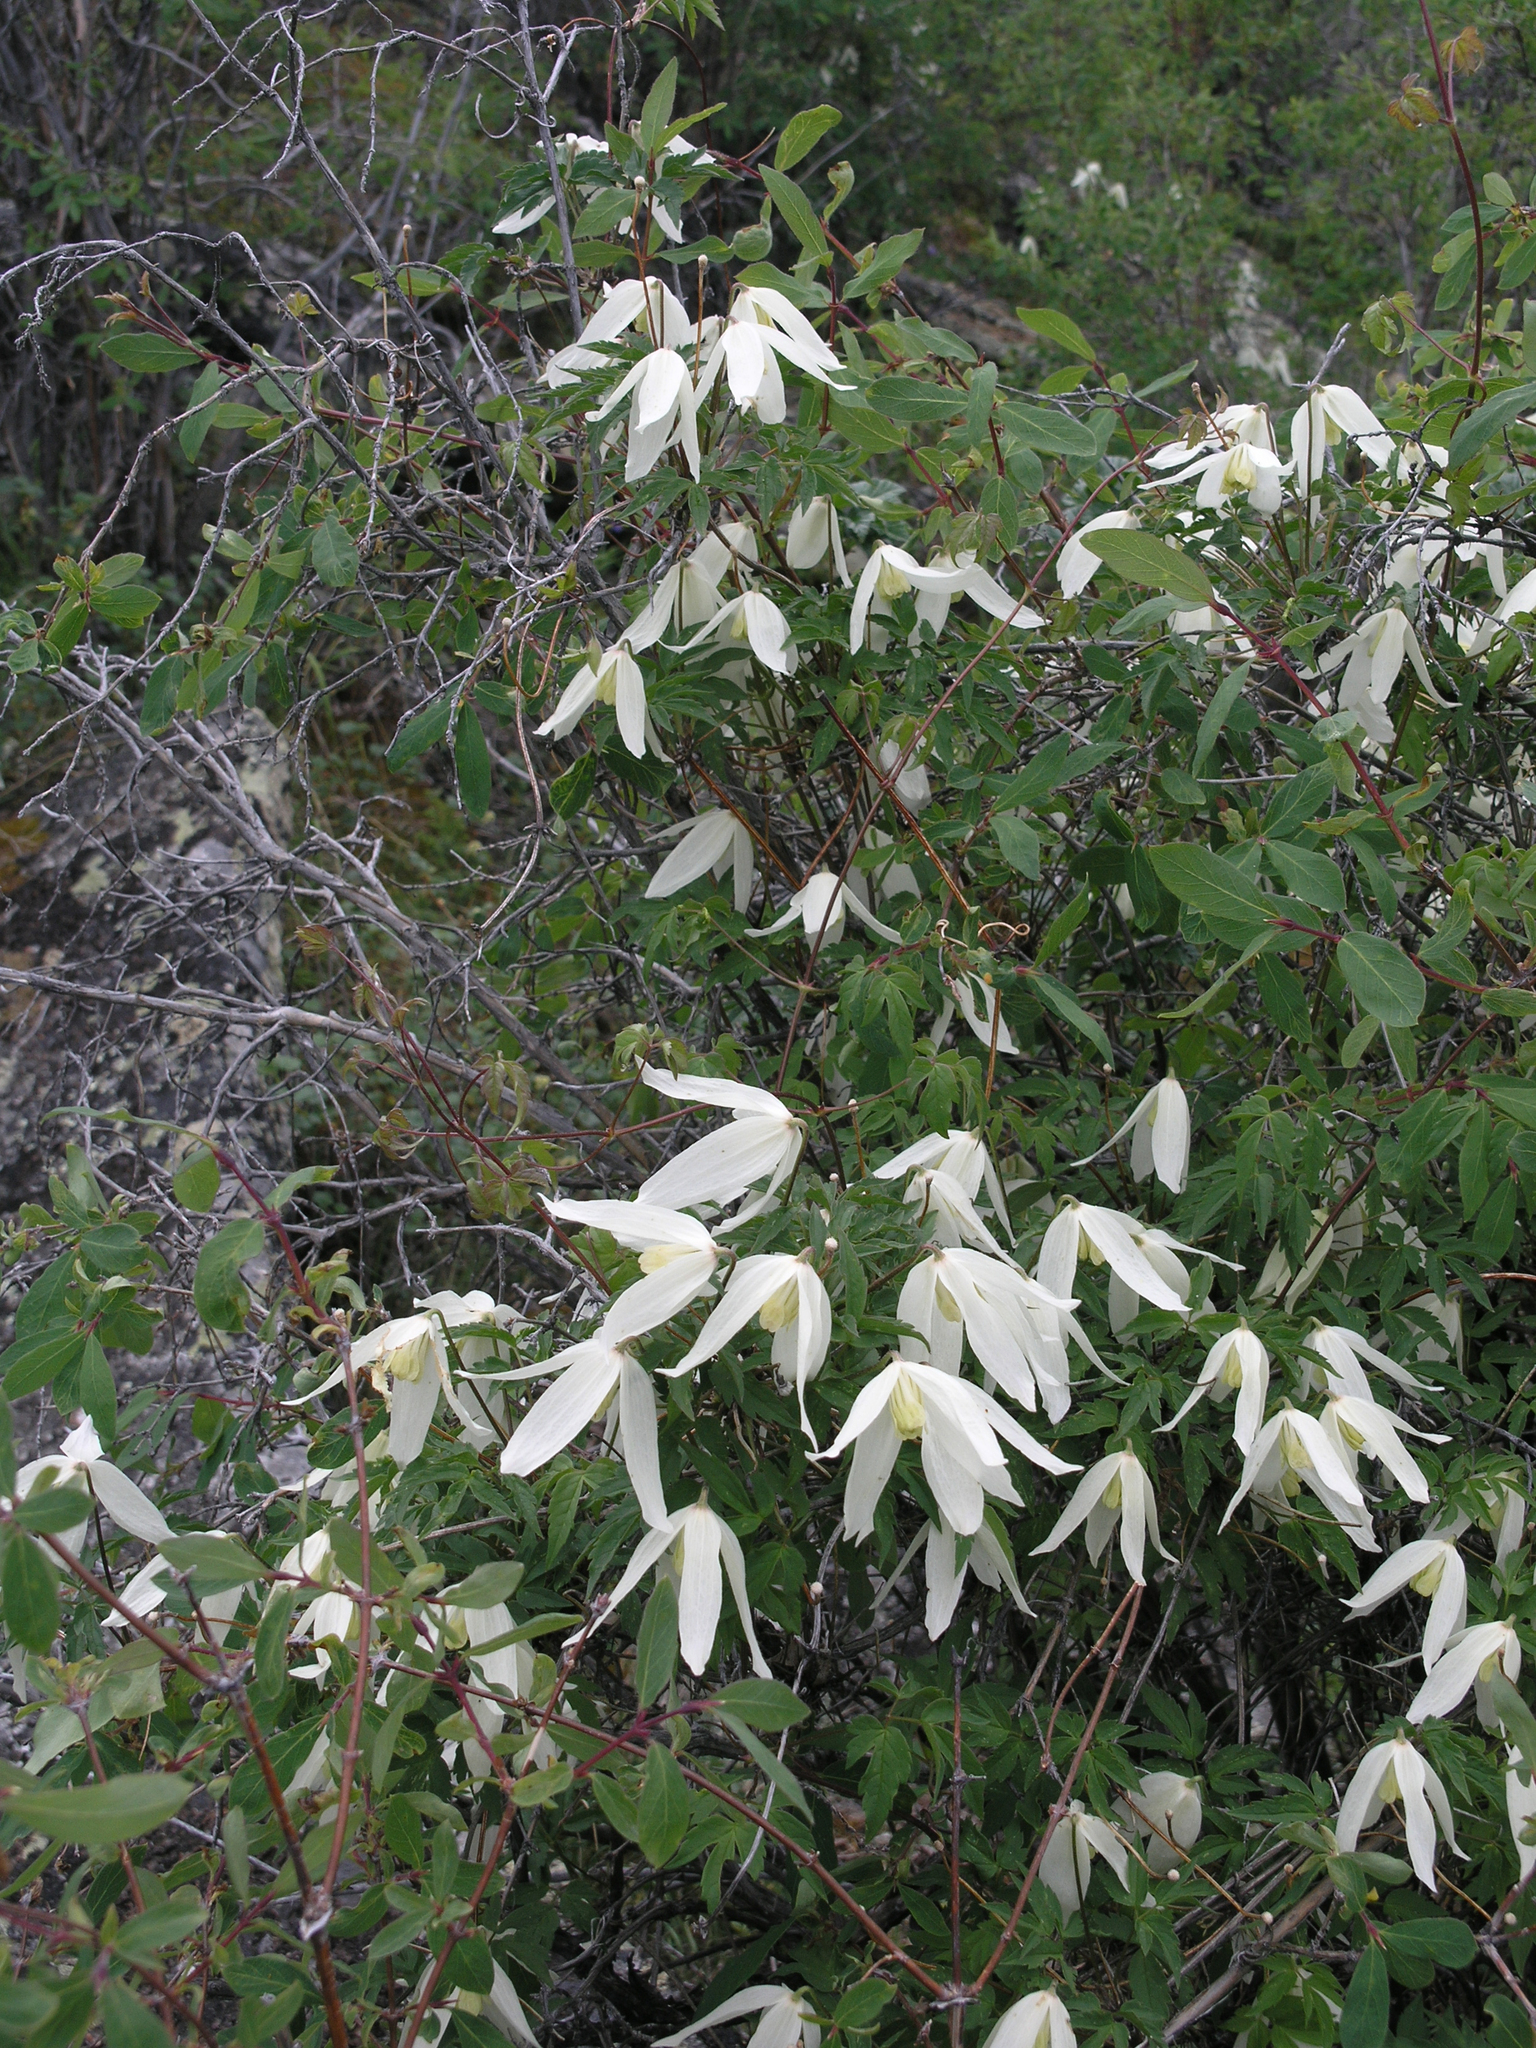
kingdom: Plantae
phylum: Tracheophyta
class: Magnoliopsida
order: Ranunculales
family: Ranunculaceae
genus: Clematis
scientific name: Clematis sibirica
